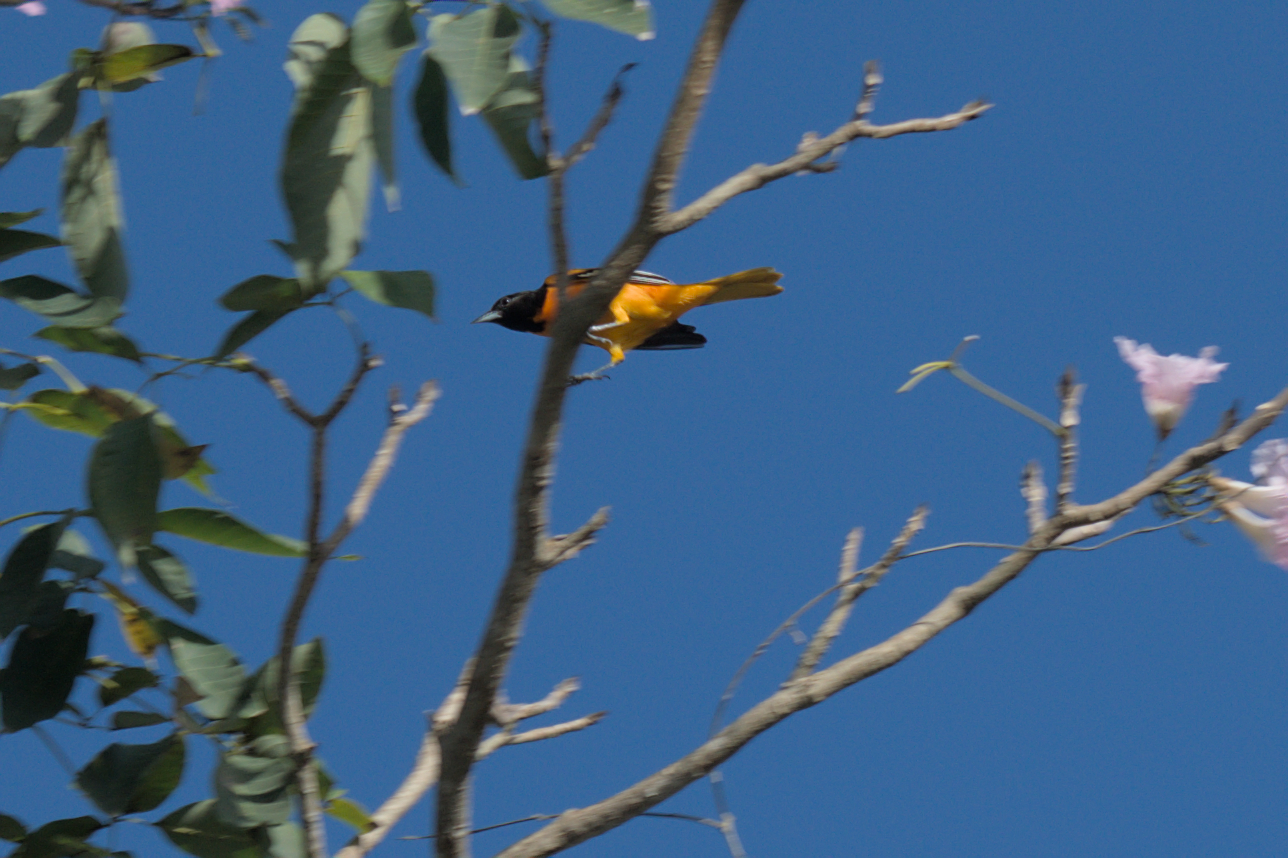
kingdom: Animalia
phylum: Chordata
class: Aves
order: Passeriformes
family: Icteridae
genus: Icterus
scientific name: Icterus galbula
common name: Baltimore oriole
